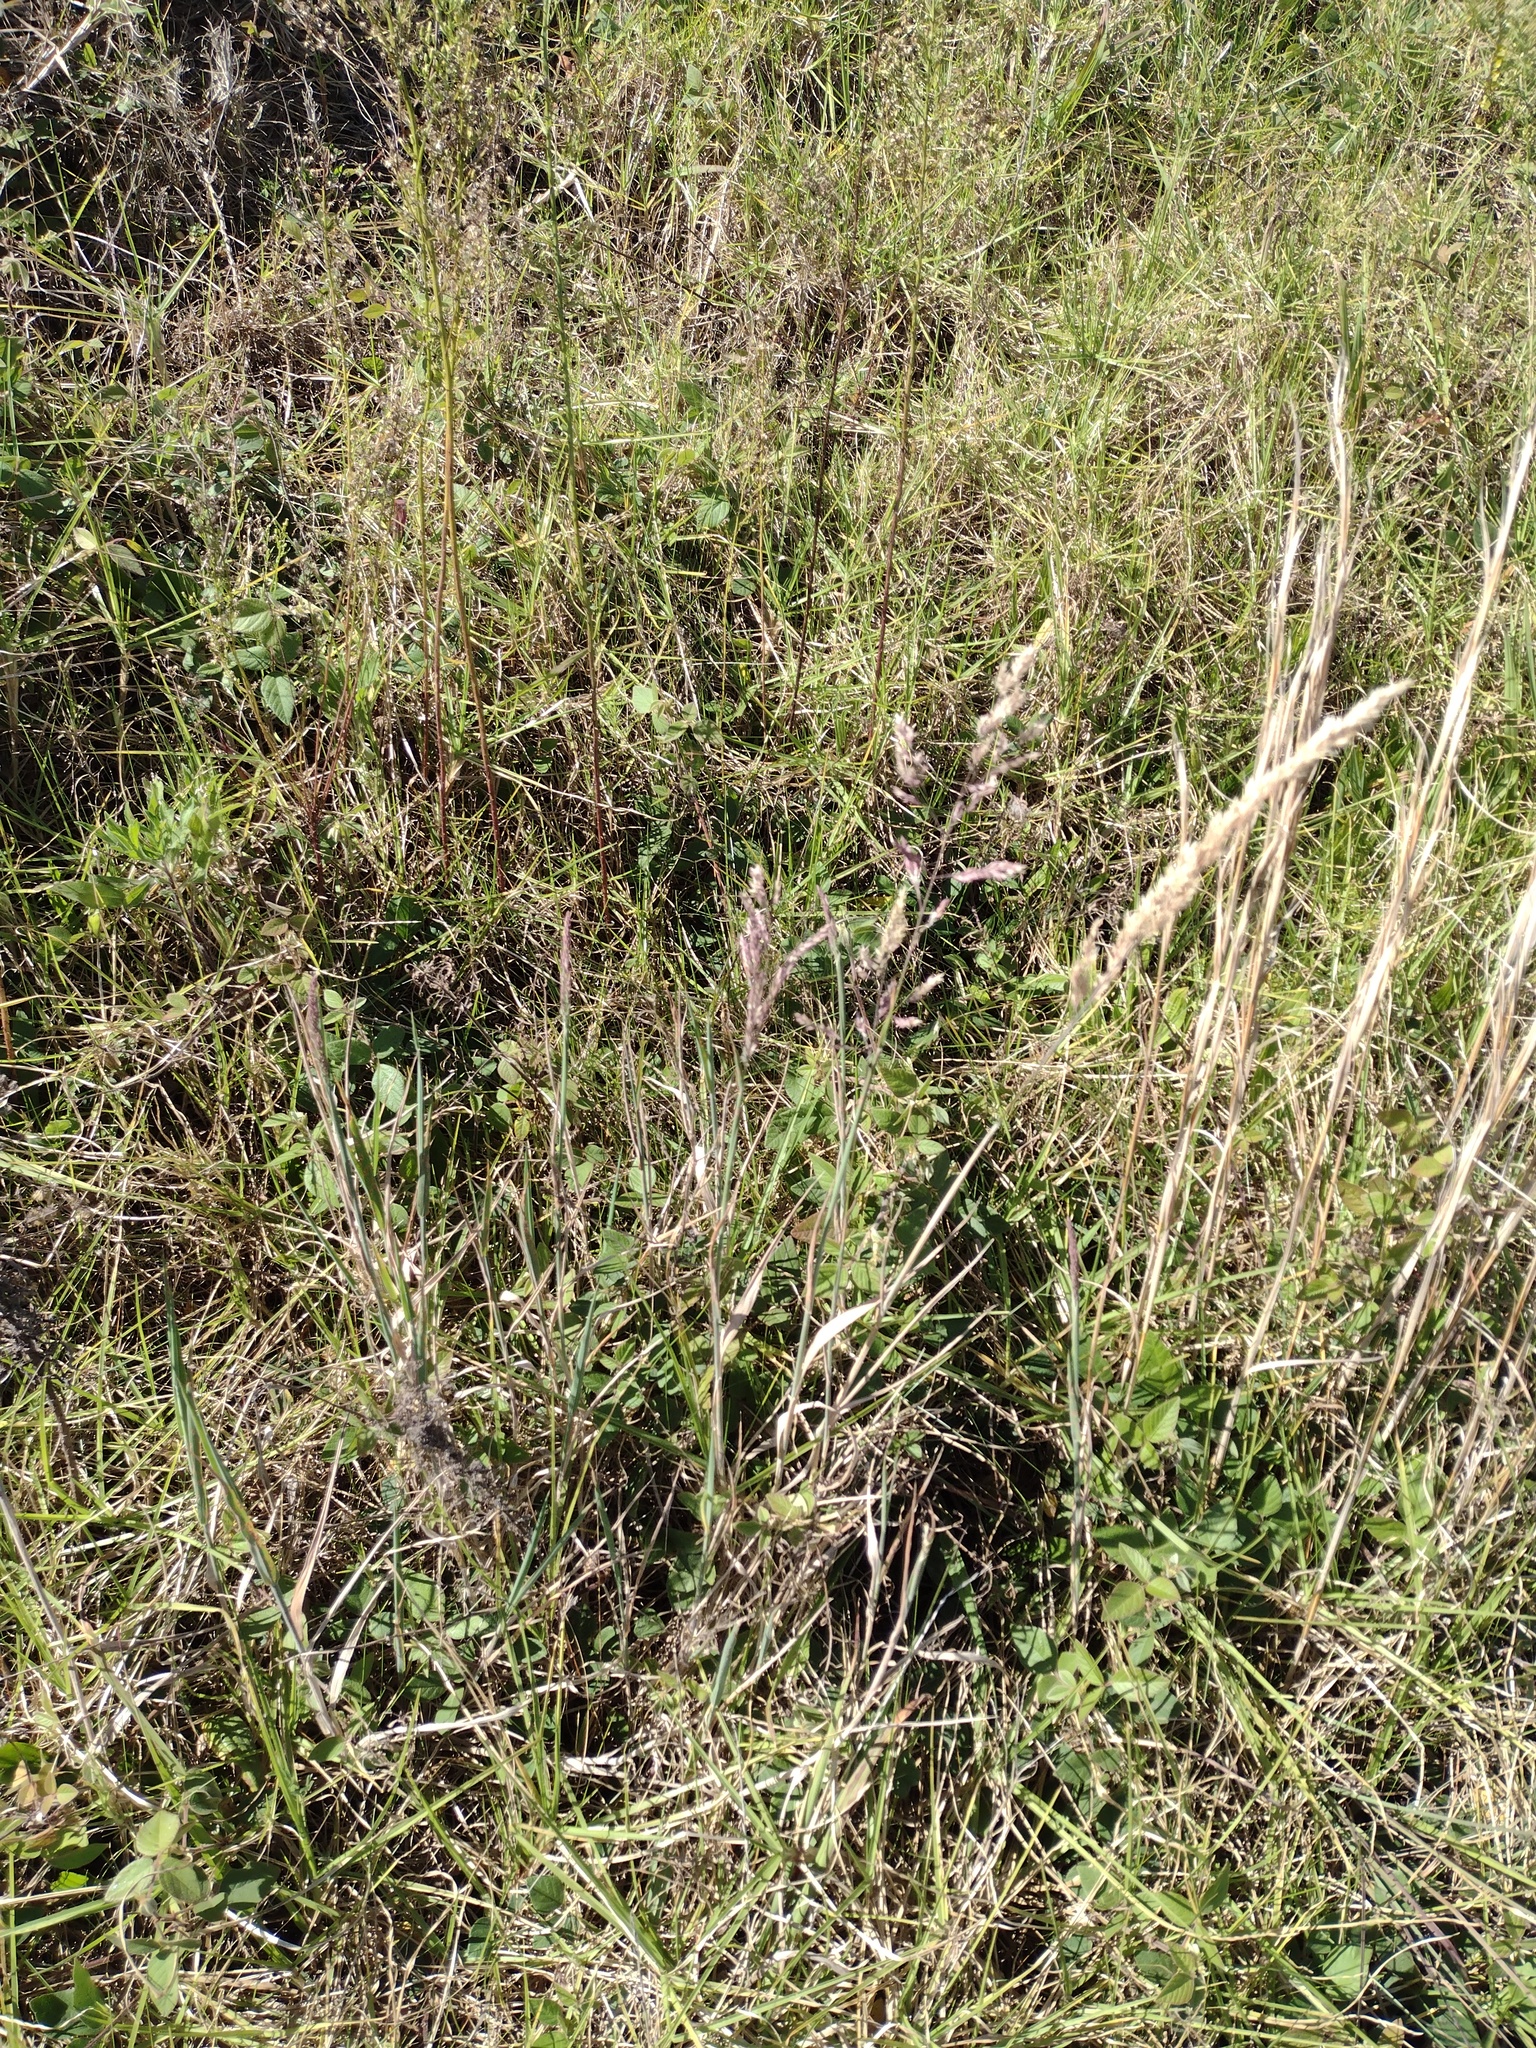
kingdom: Plantae
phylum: Tracheophyta
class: Liliopsida
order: Poales
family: Poaceae
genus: Holcus
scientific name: Holcus lanatus
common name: Yorkshire-fog
